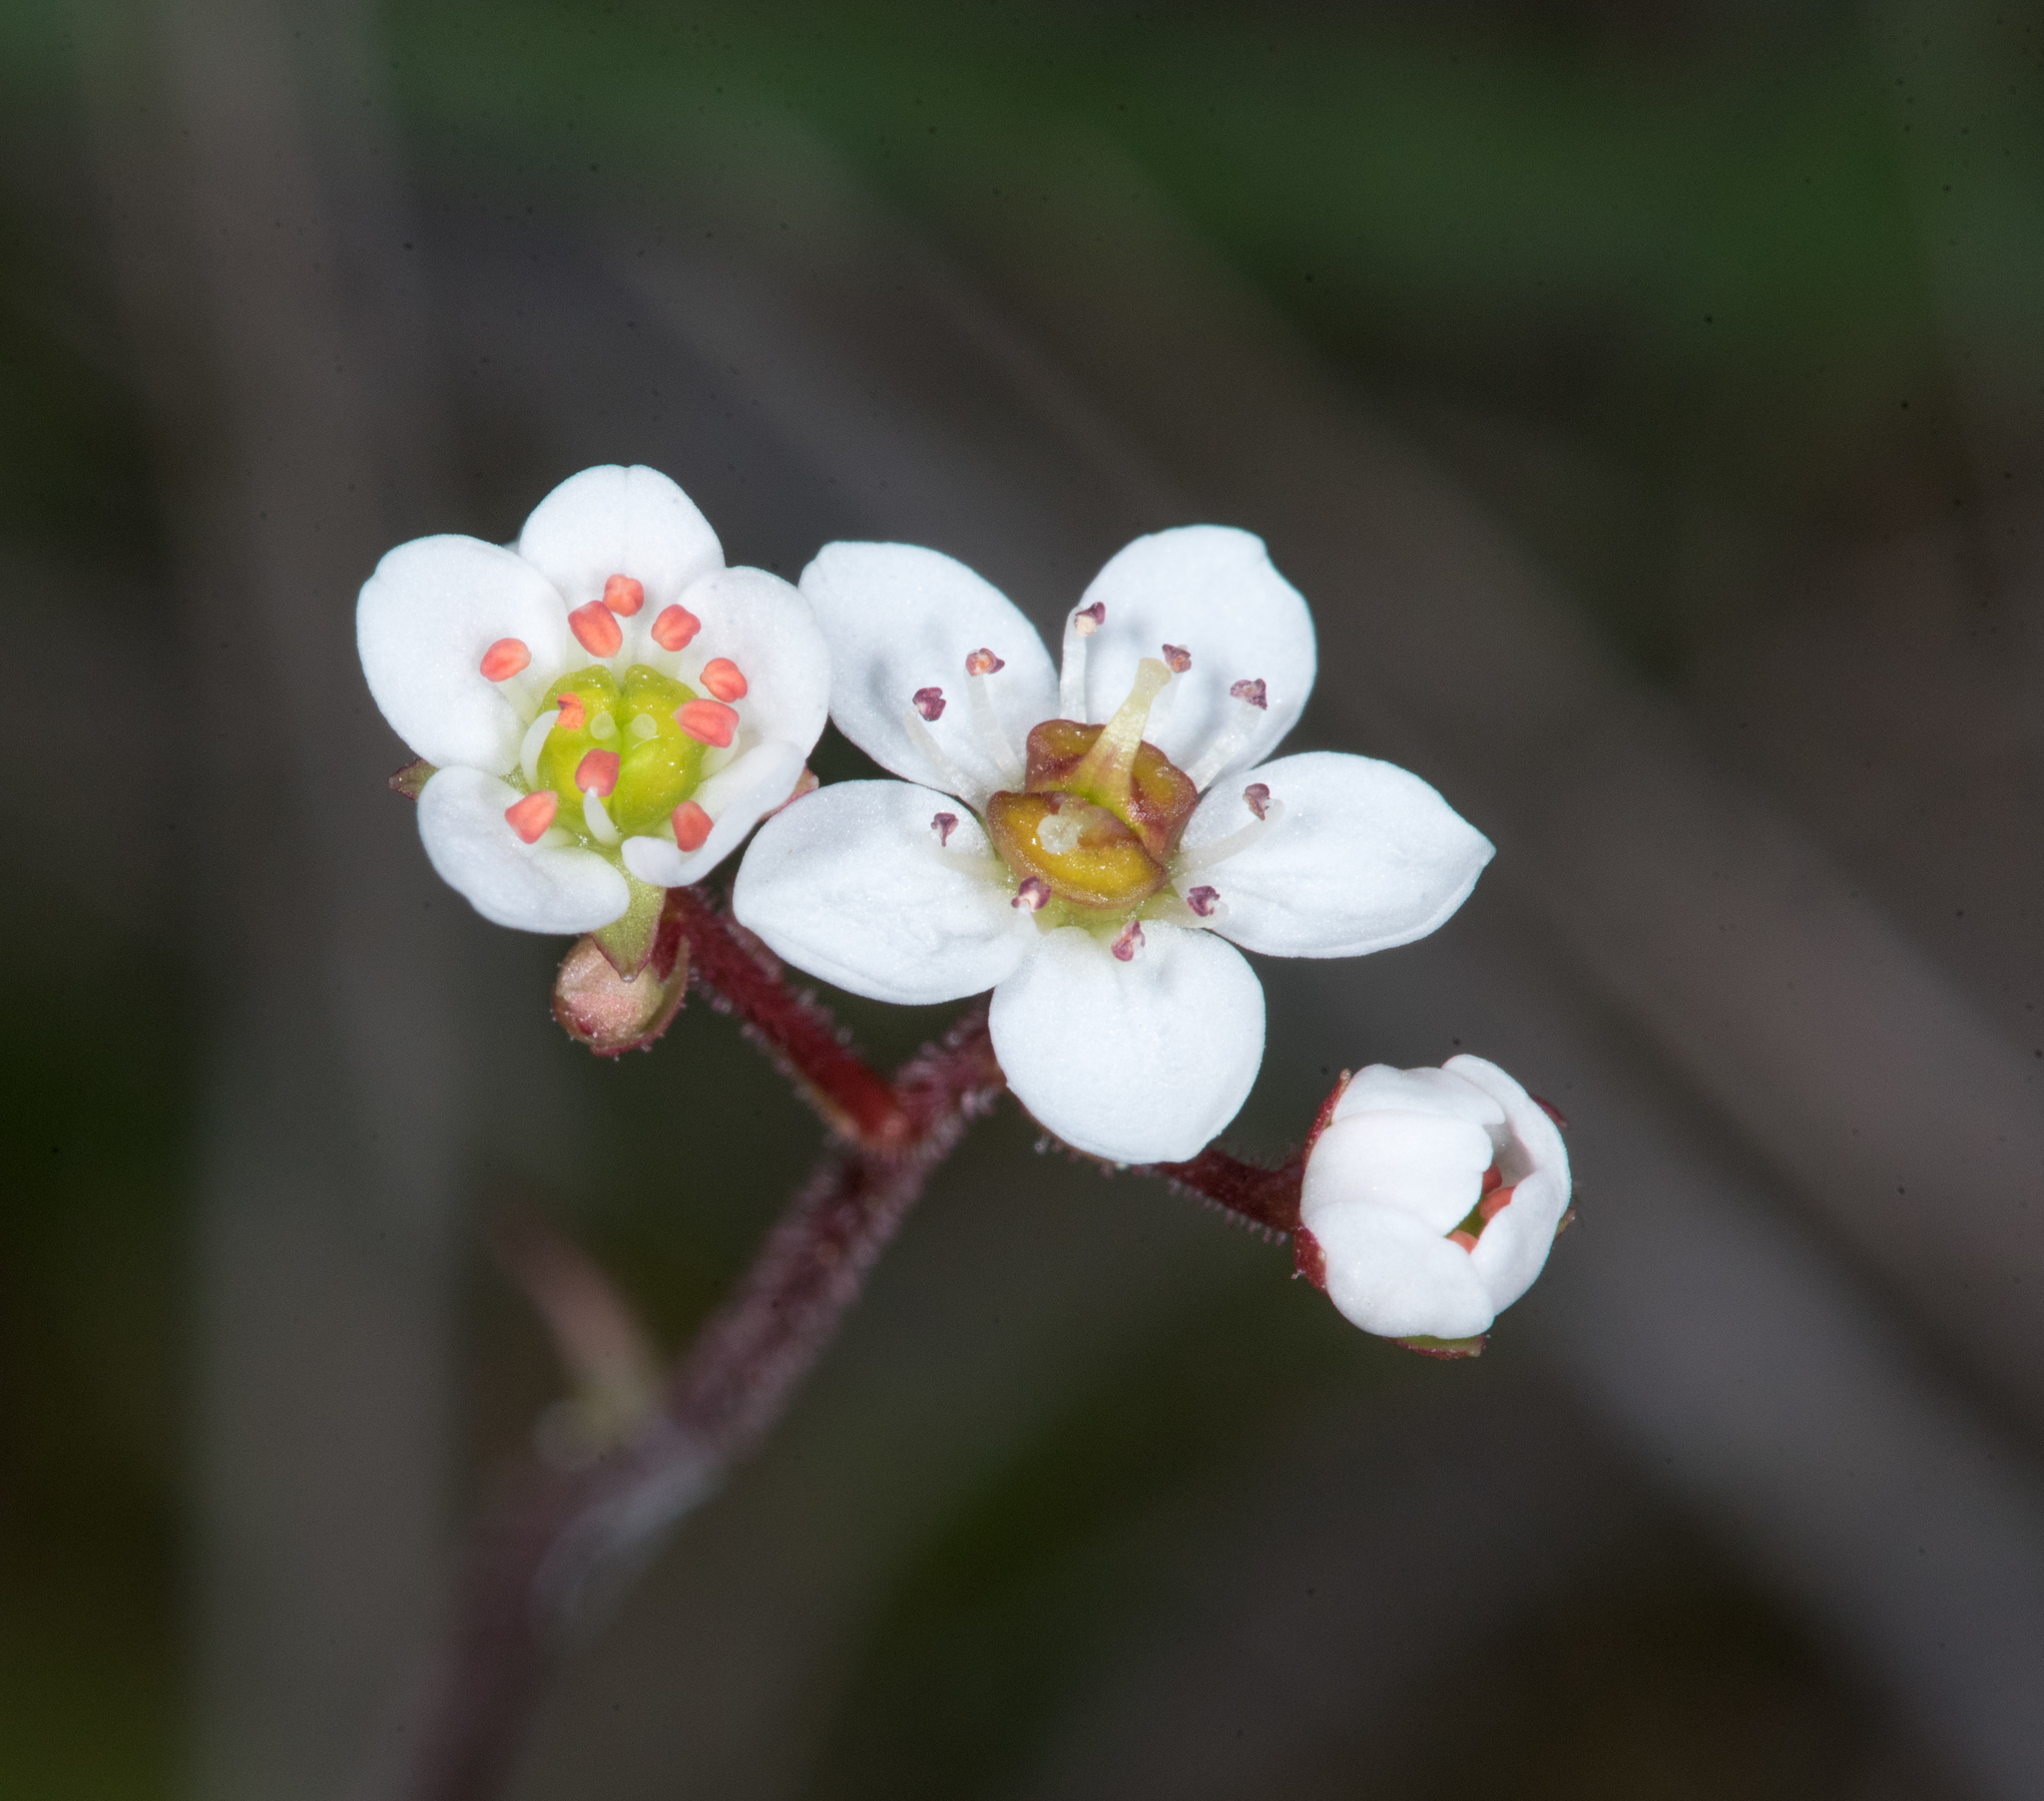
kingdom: Plantae
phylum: Tracheophyta
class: Magnoliopsida
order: Saxifragales
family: Saxifragaceae
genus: Micranthes
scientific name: Micranthes integrifolia
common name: Wholeleaf saxifrage
